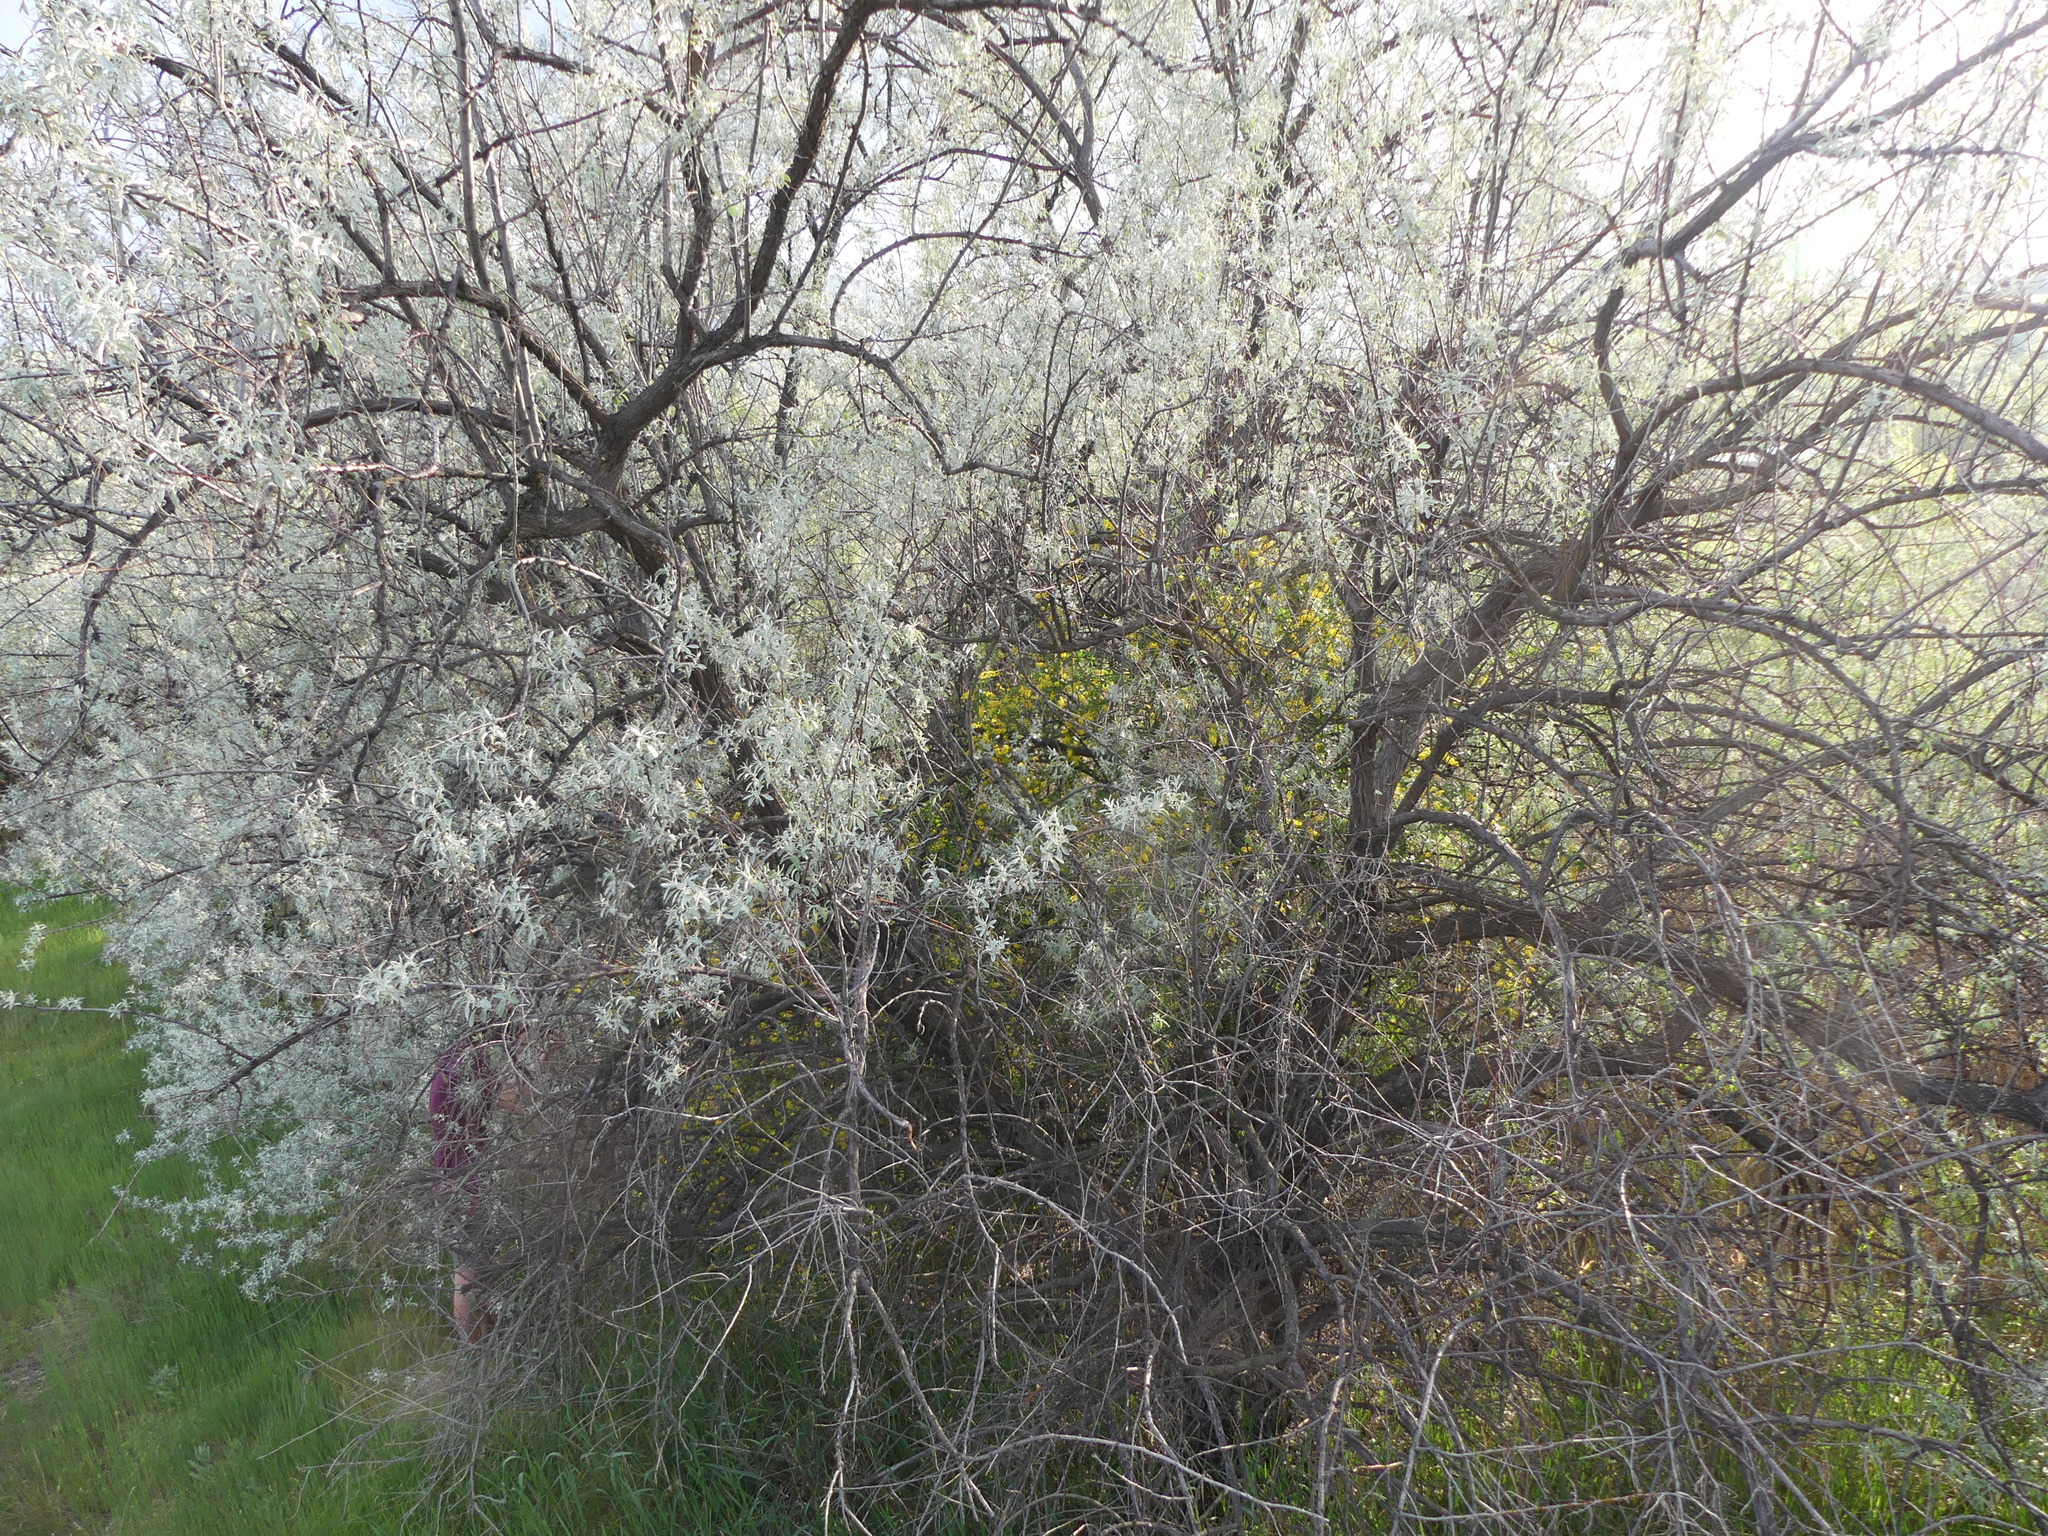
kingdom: Plantae
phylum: Tracheophyta
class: Magnoliopsida
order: Rosales
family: Elaeagnaceae
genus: Elaeagnus
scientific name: Elaeagnus angustifolia
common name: Russian olive
